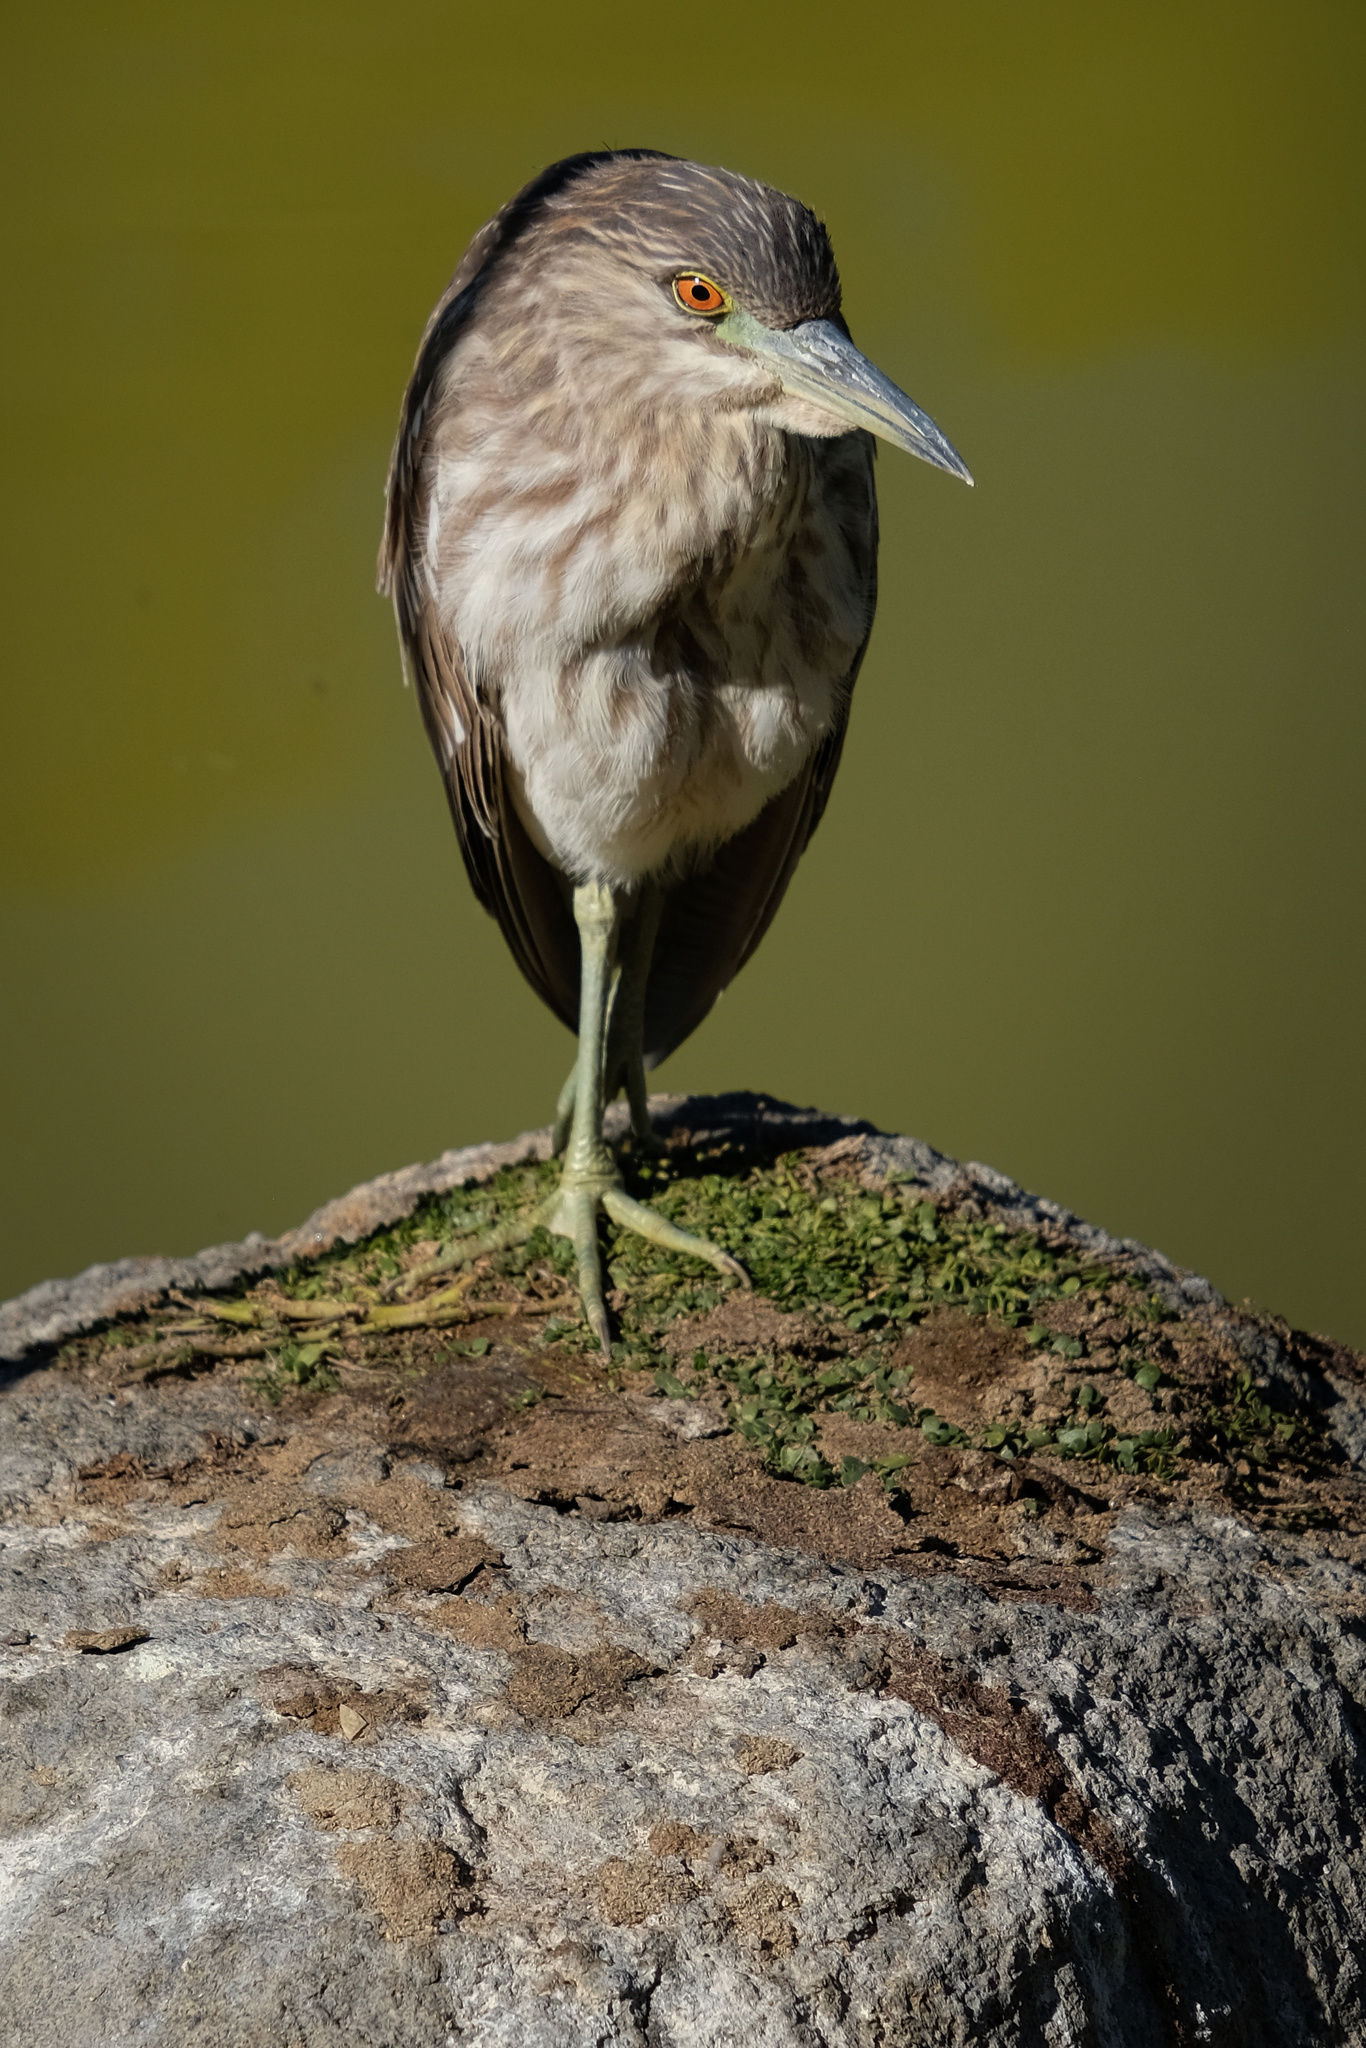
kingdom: Animalia
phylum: Chordata
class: Aves
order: Pelecaniformes
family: Ardeidae
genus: Nycticorax
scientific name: Nycticorax nycticorax
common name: Black-crowned night heron
